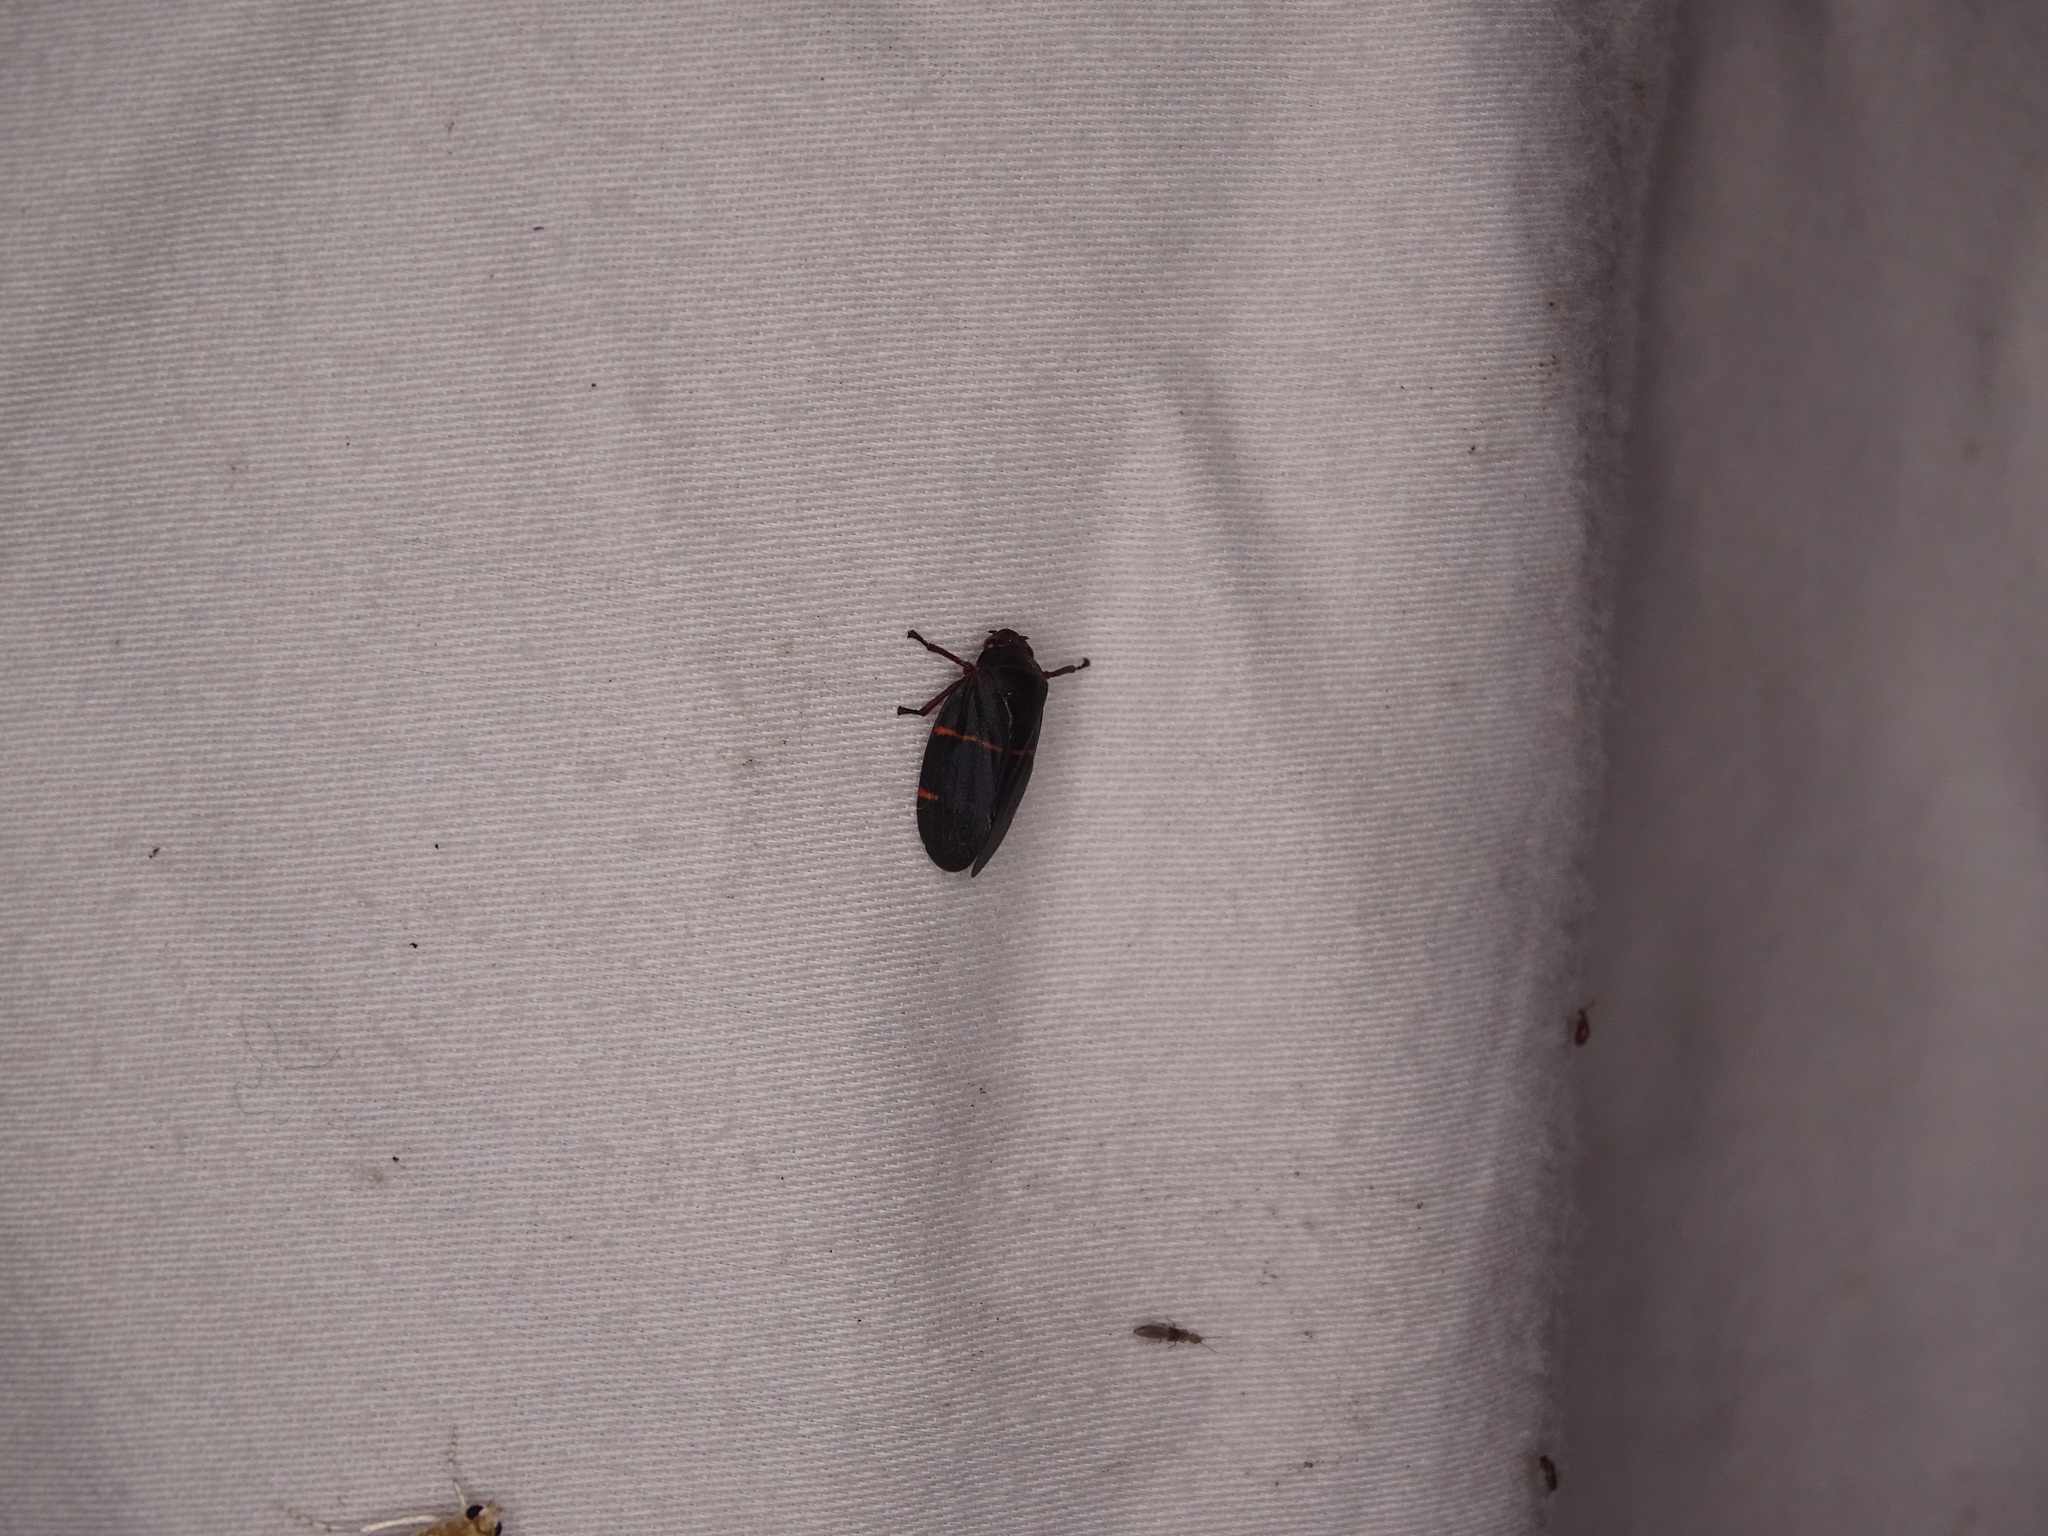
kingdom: Animalia
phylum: Arthropoda
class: Insecta
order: Hemiptera
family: Cercopidae
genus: Prosapia
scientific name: Prosapia bicincta
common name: Twolined spittlebug
